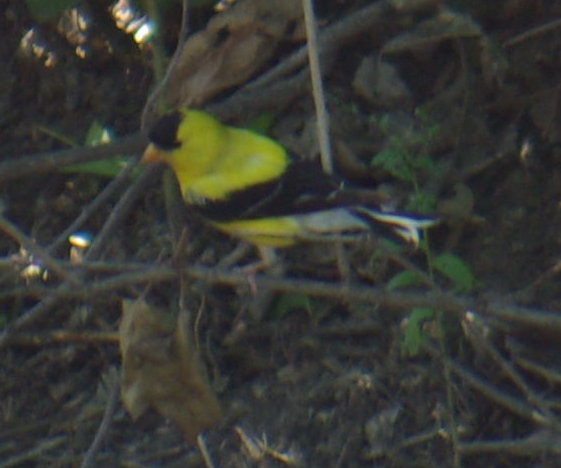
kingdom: Animalia
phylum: Chordata
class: Aves
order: Passeriformes
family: Fringillidae
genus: Spinus
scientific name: Spinus tristis
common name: American goldfinch
